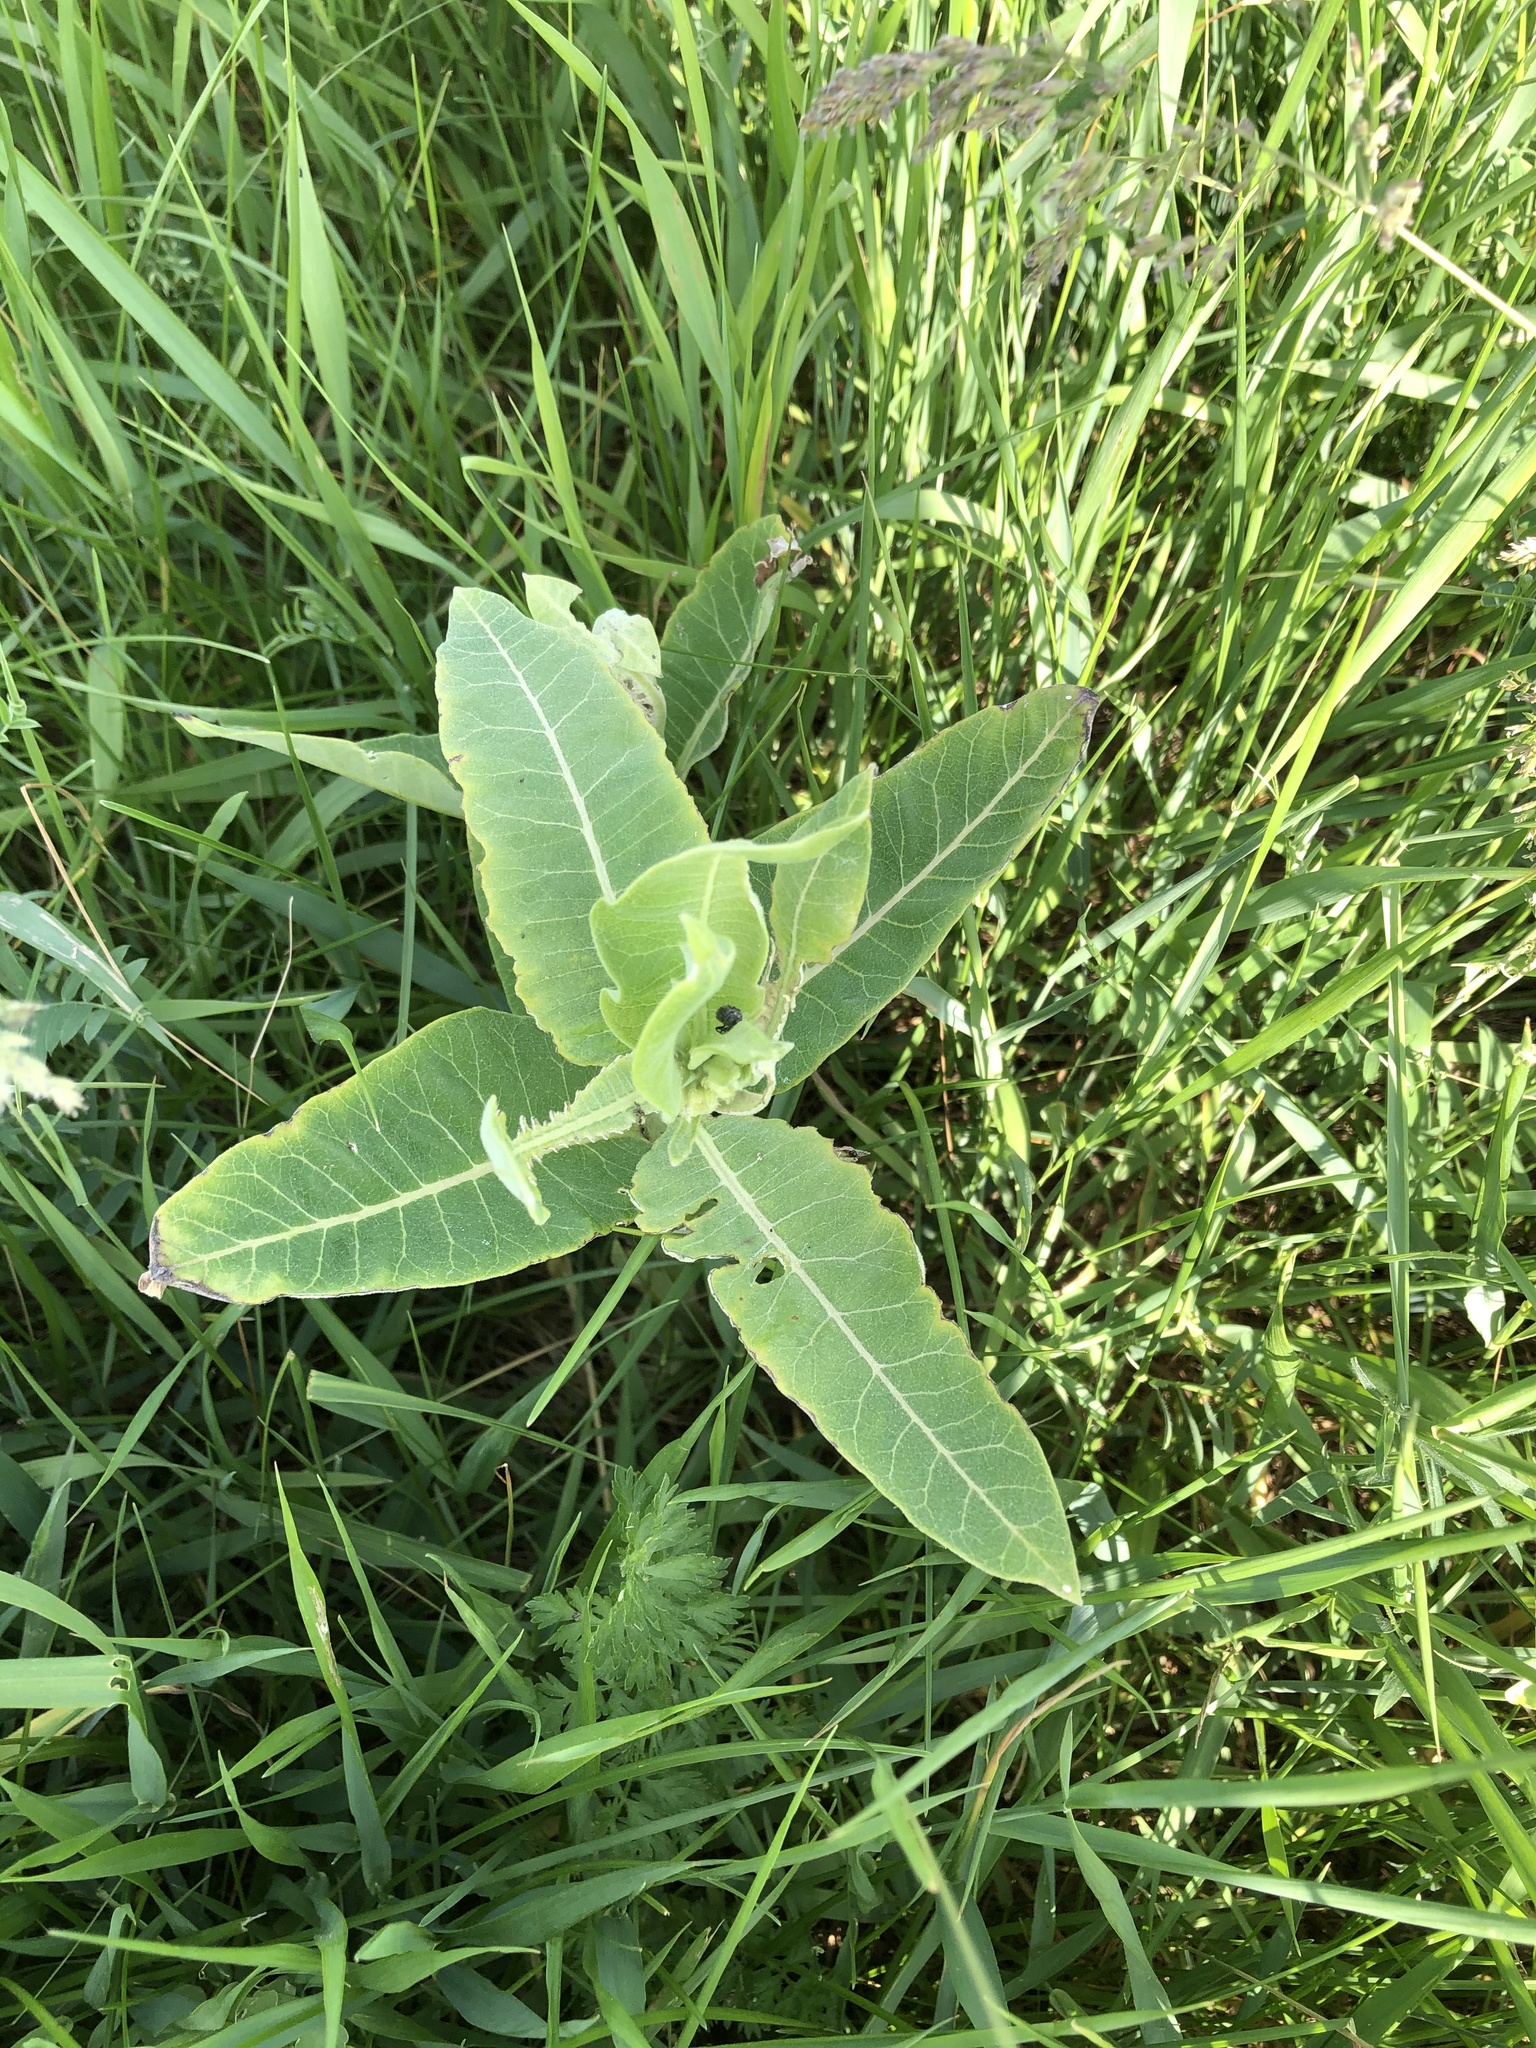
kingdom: Plantae
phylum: Tracheophyta
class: Magnoliopsida
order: Gentianales
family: Apocynaceae
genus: Asclepias
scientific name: Asclepias syriaca
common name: Common milkweed
